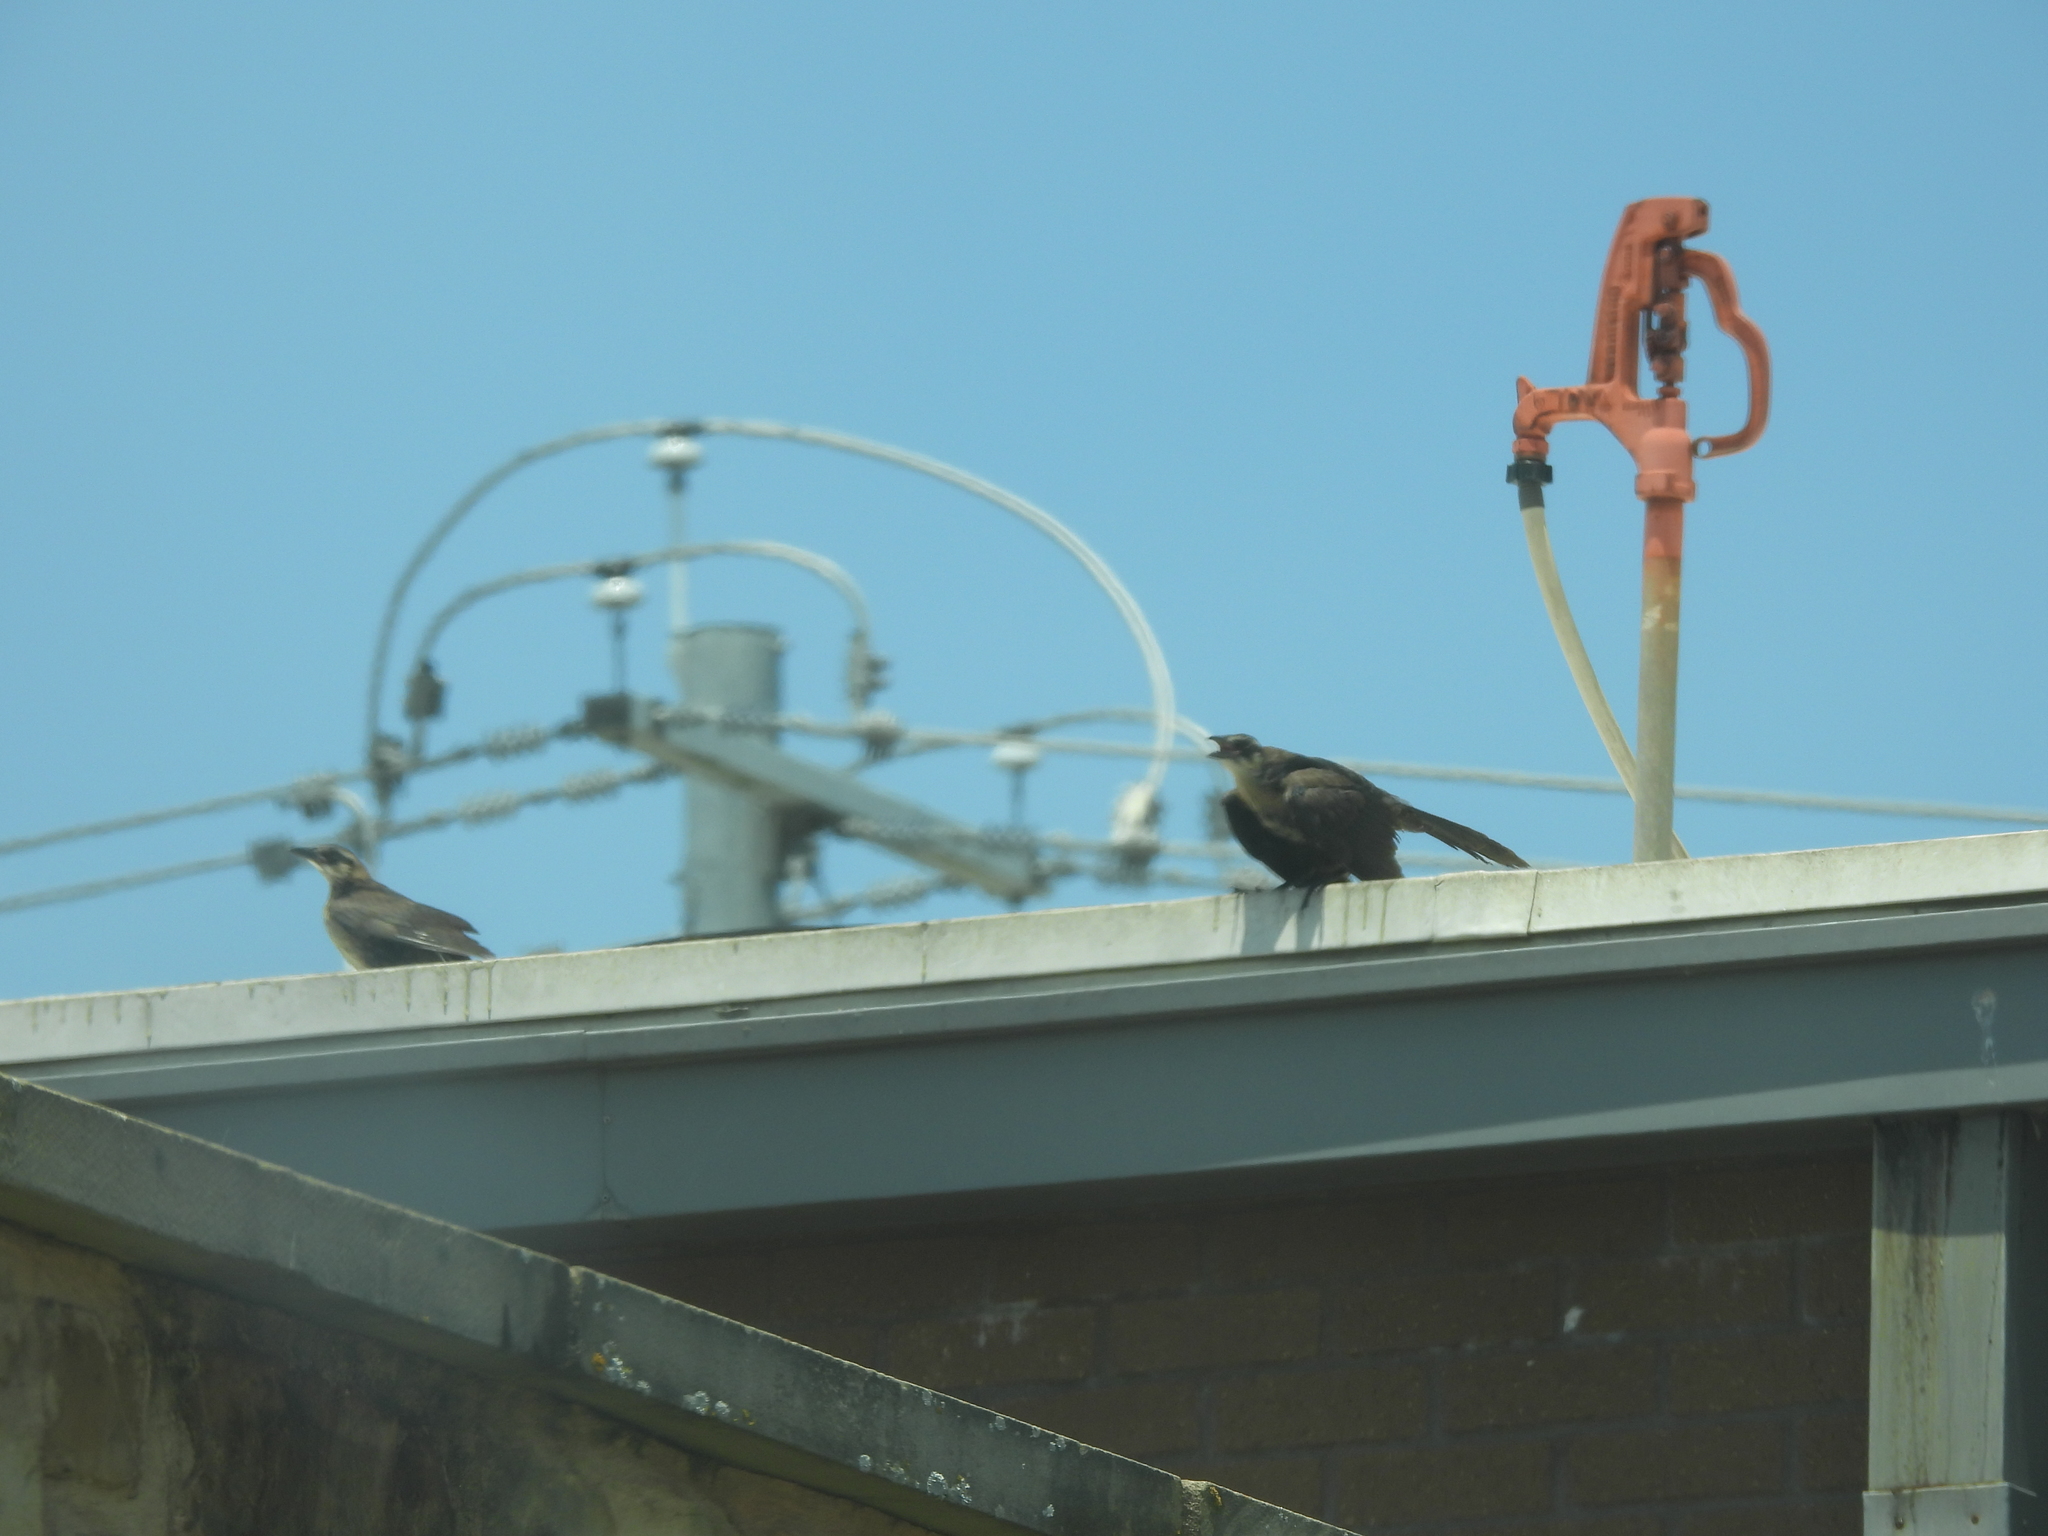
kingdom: Animalia
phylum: Chordata
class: Aves
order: Passeriformes
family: Icteridae
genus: Quiscalus
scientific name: Quiscalus mexicanus
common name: Great-tailed grackle
